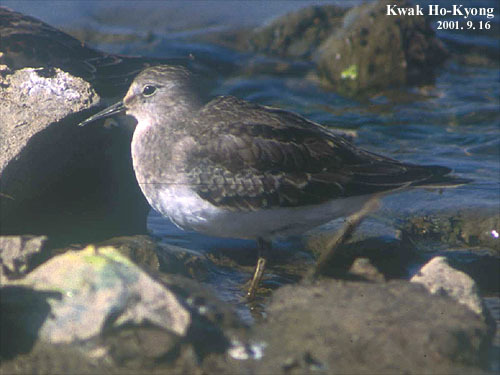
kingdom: Animalia
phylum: Chordata
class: Aves
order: Charadriiformes
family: Scolopacidae
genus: Calidris
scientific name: Calidris temminckii
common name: Temminck's stint
